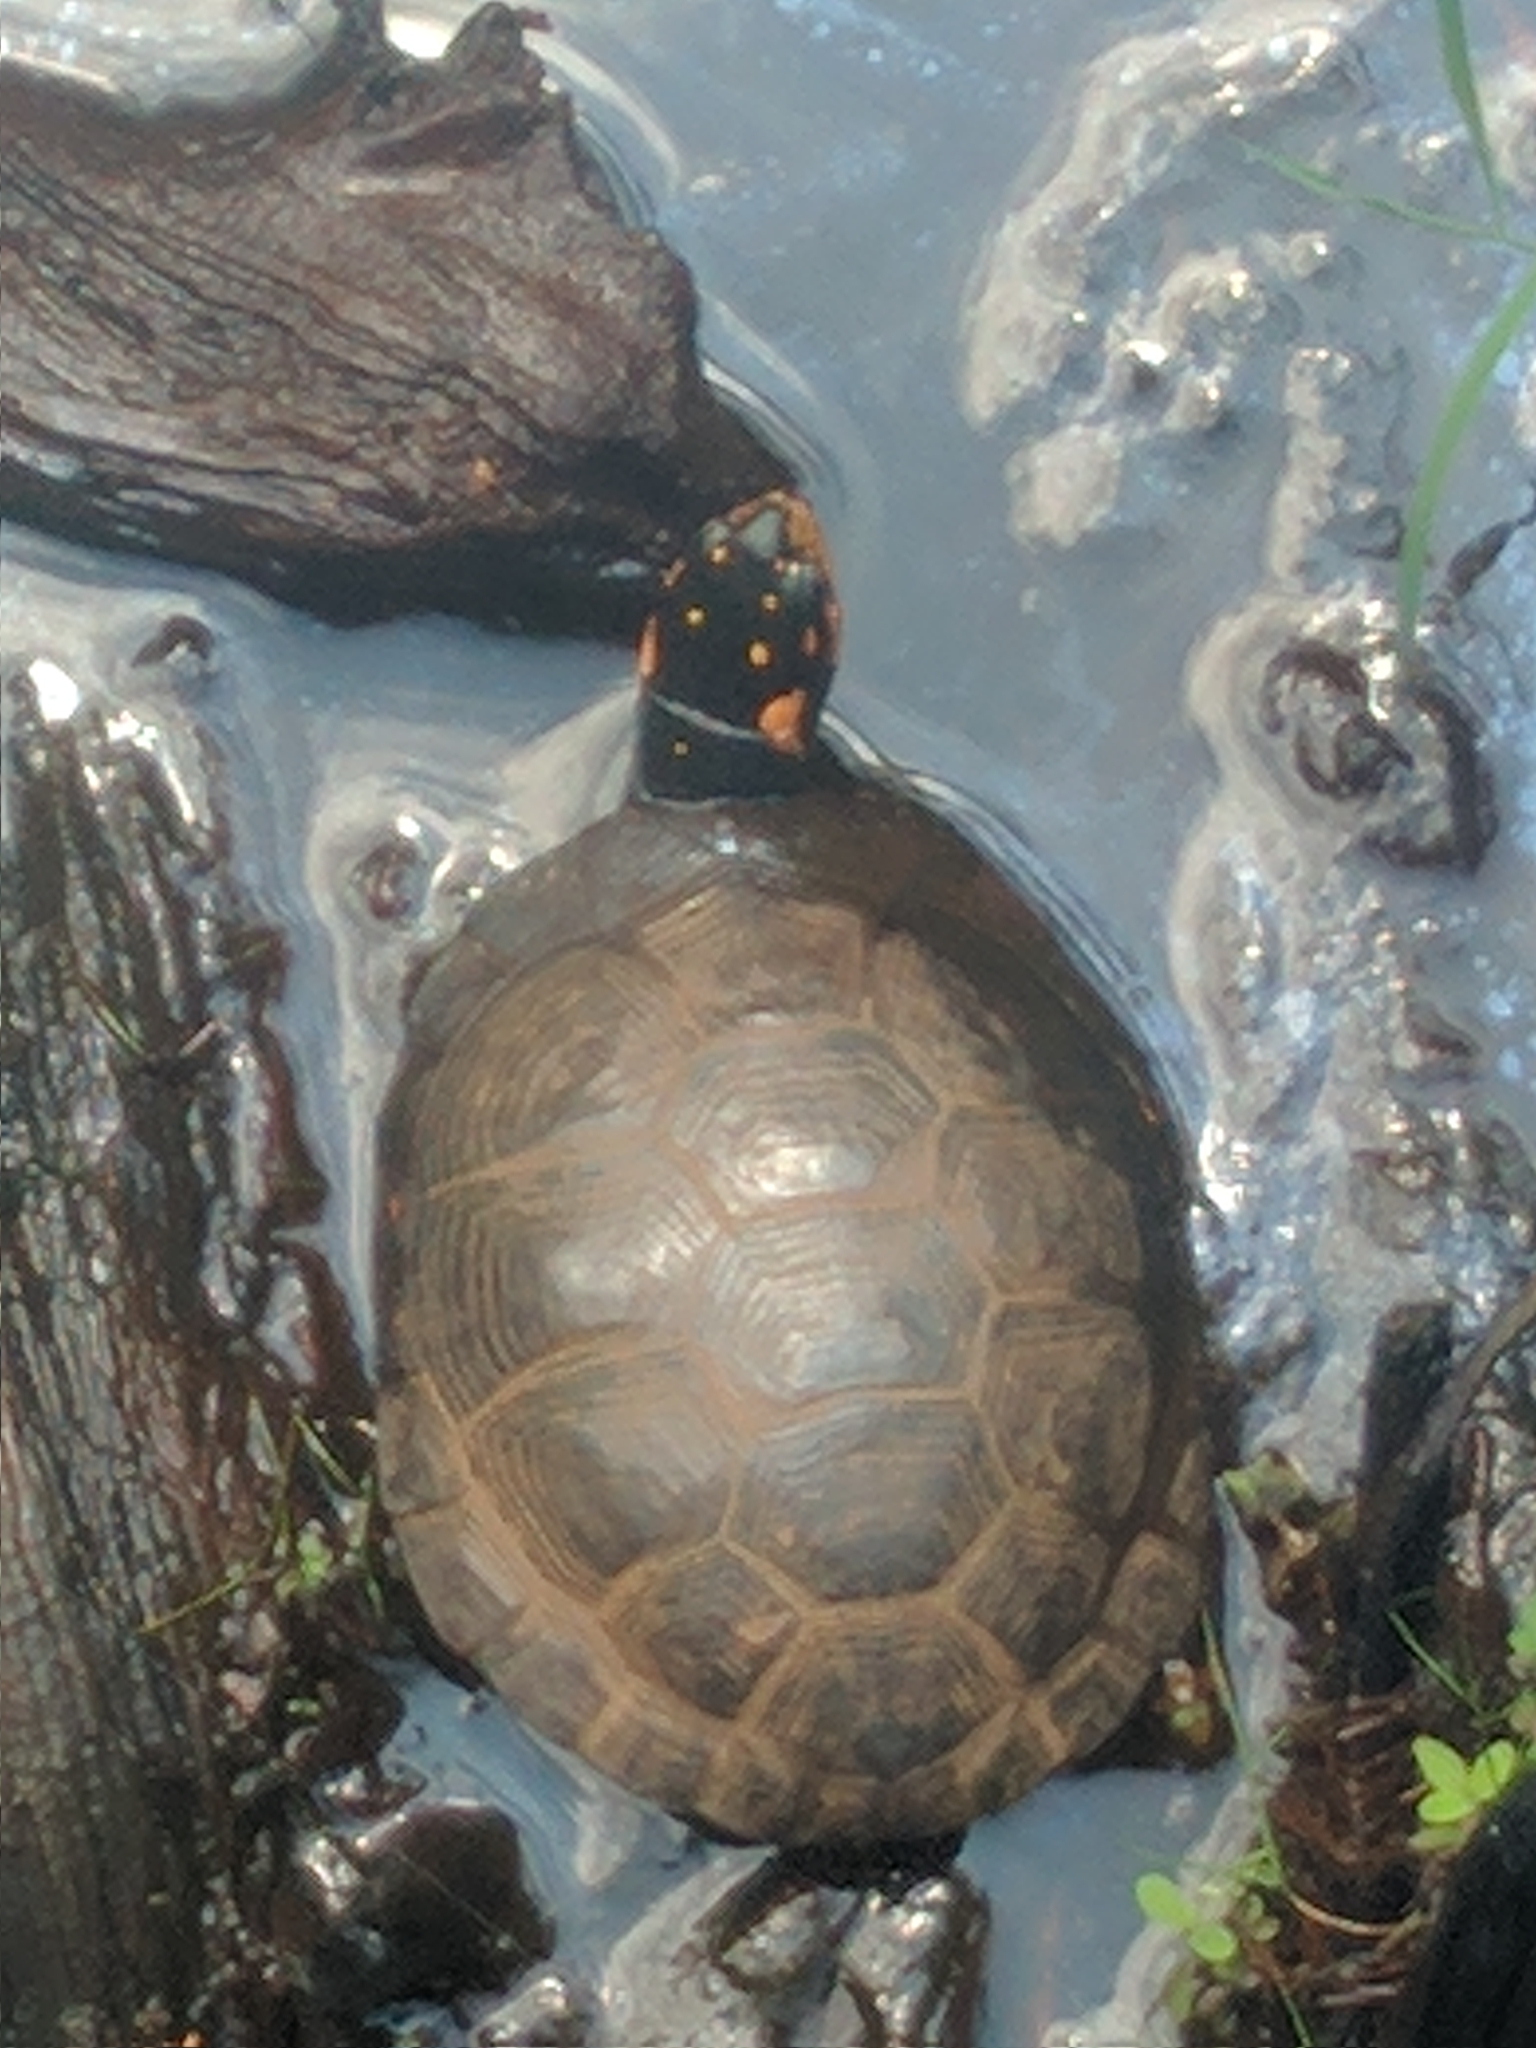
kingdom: Animalia
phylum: Chordata
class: Testudines
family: Emydidae
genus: Clemmys
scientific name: Clemmys guttata
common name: Spotted turtle
